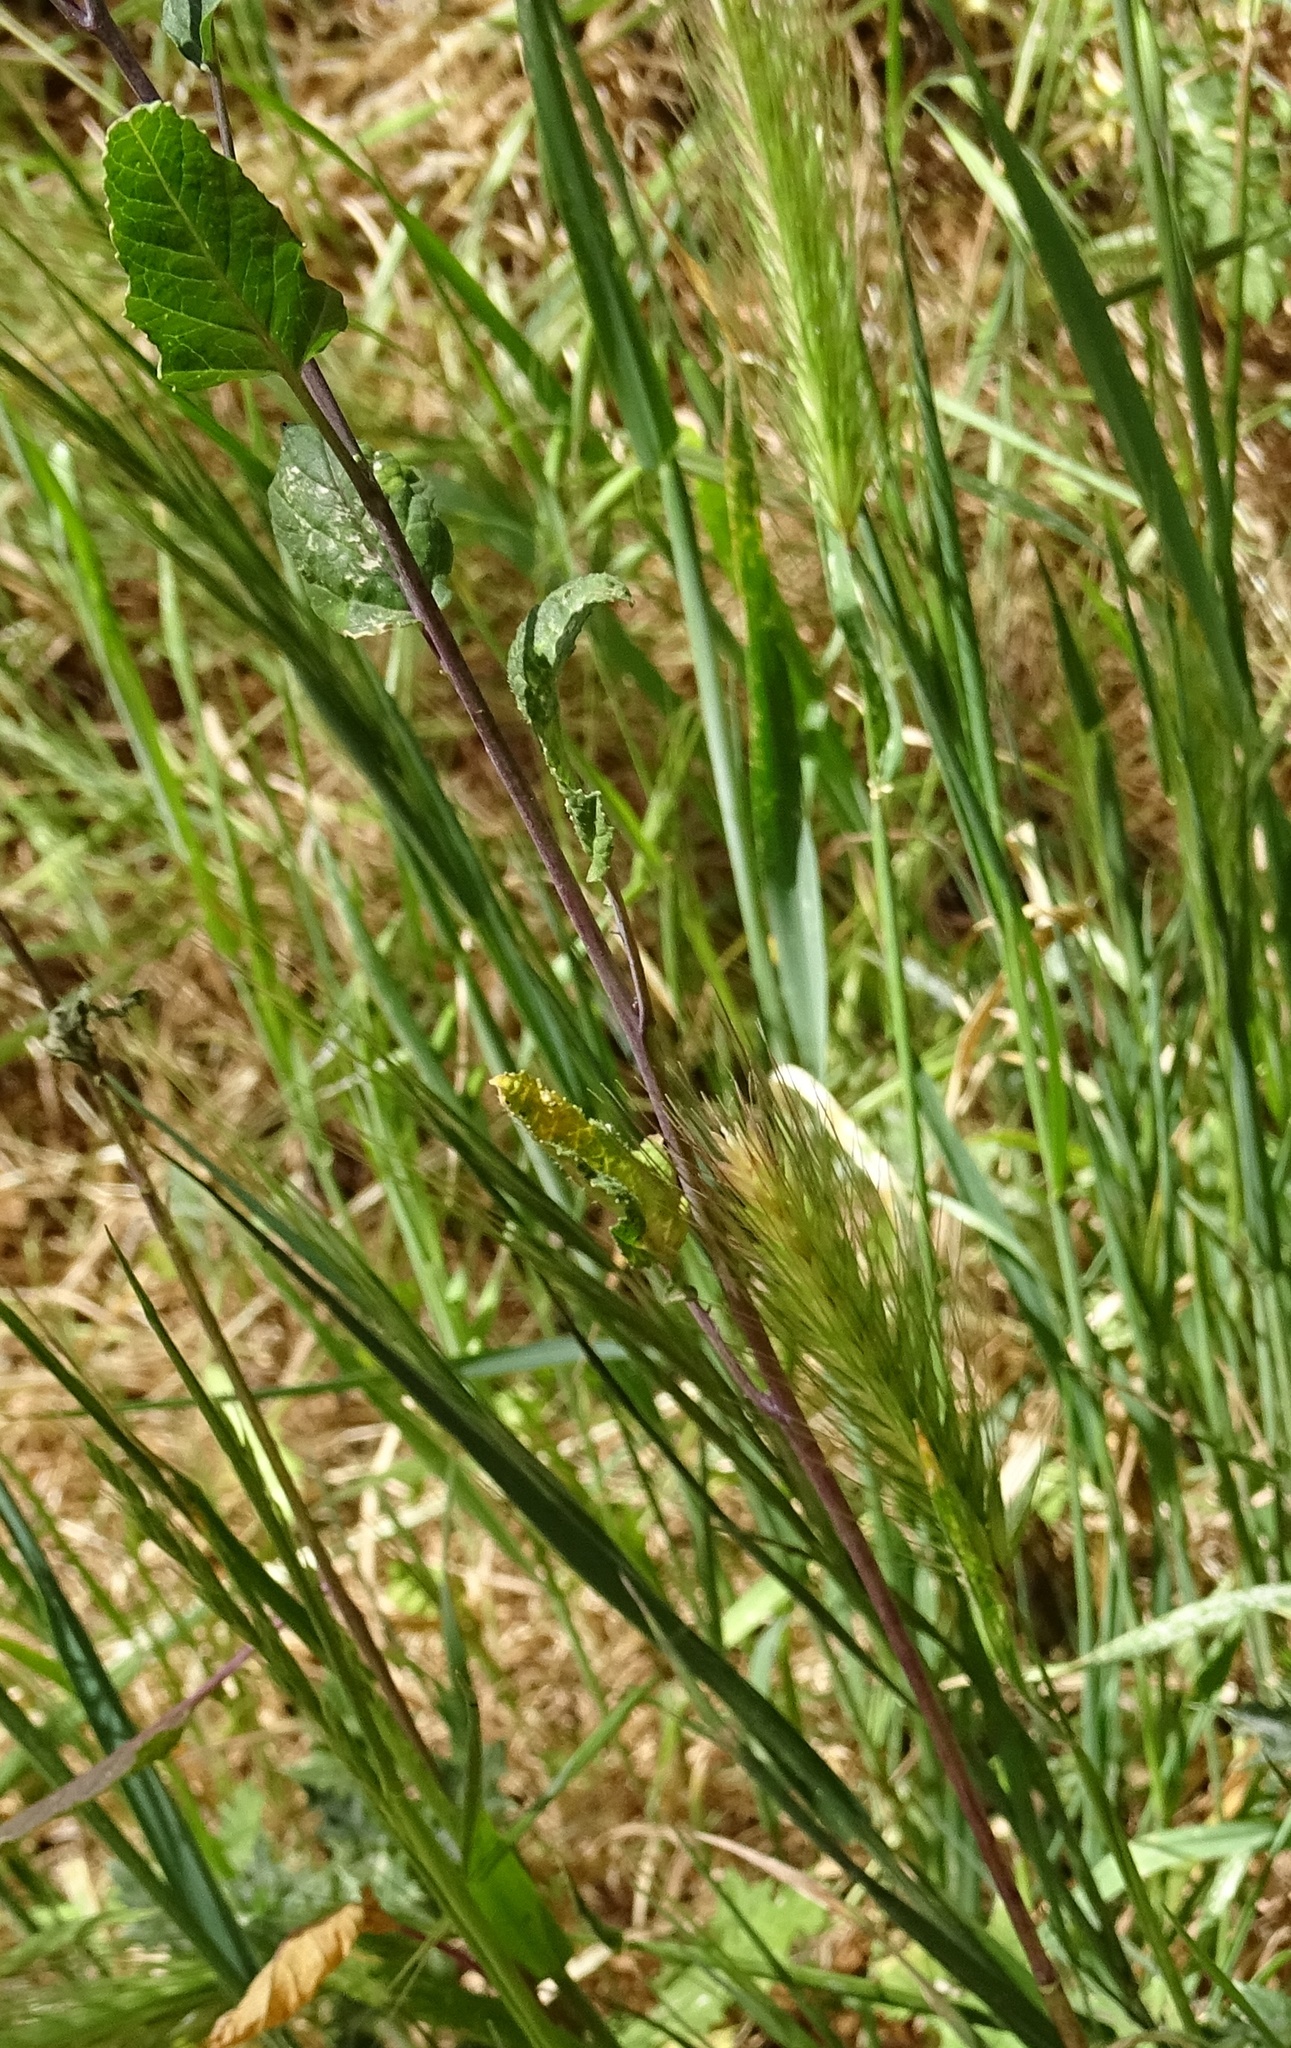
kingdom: Plantae
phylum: Tracheophyta
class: Liliopsida
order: Poales
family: Poaceae
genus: Hordeum
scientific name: Hordeum murinum
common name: Wall barley
